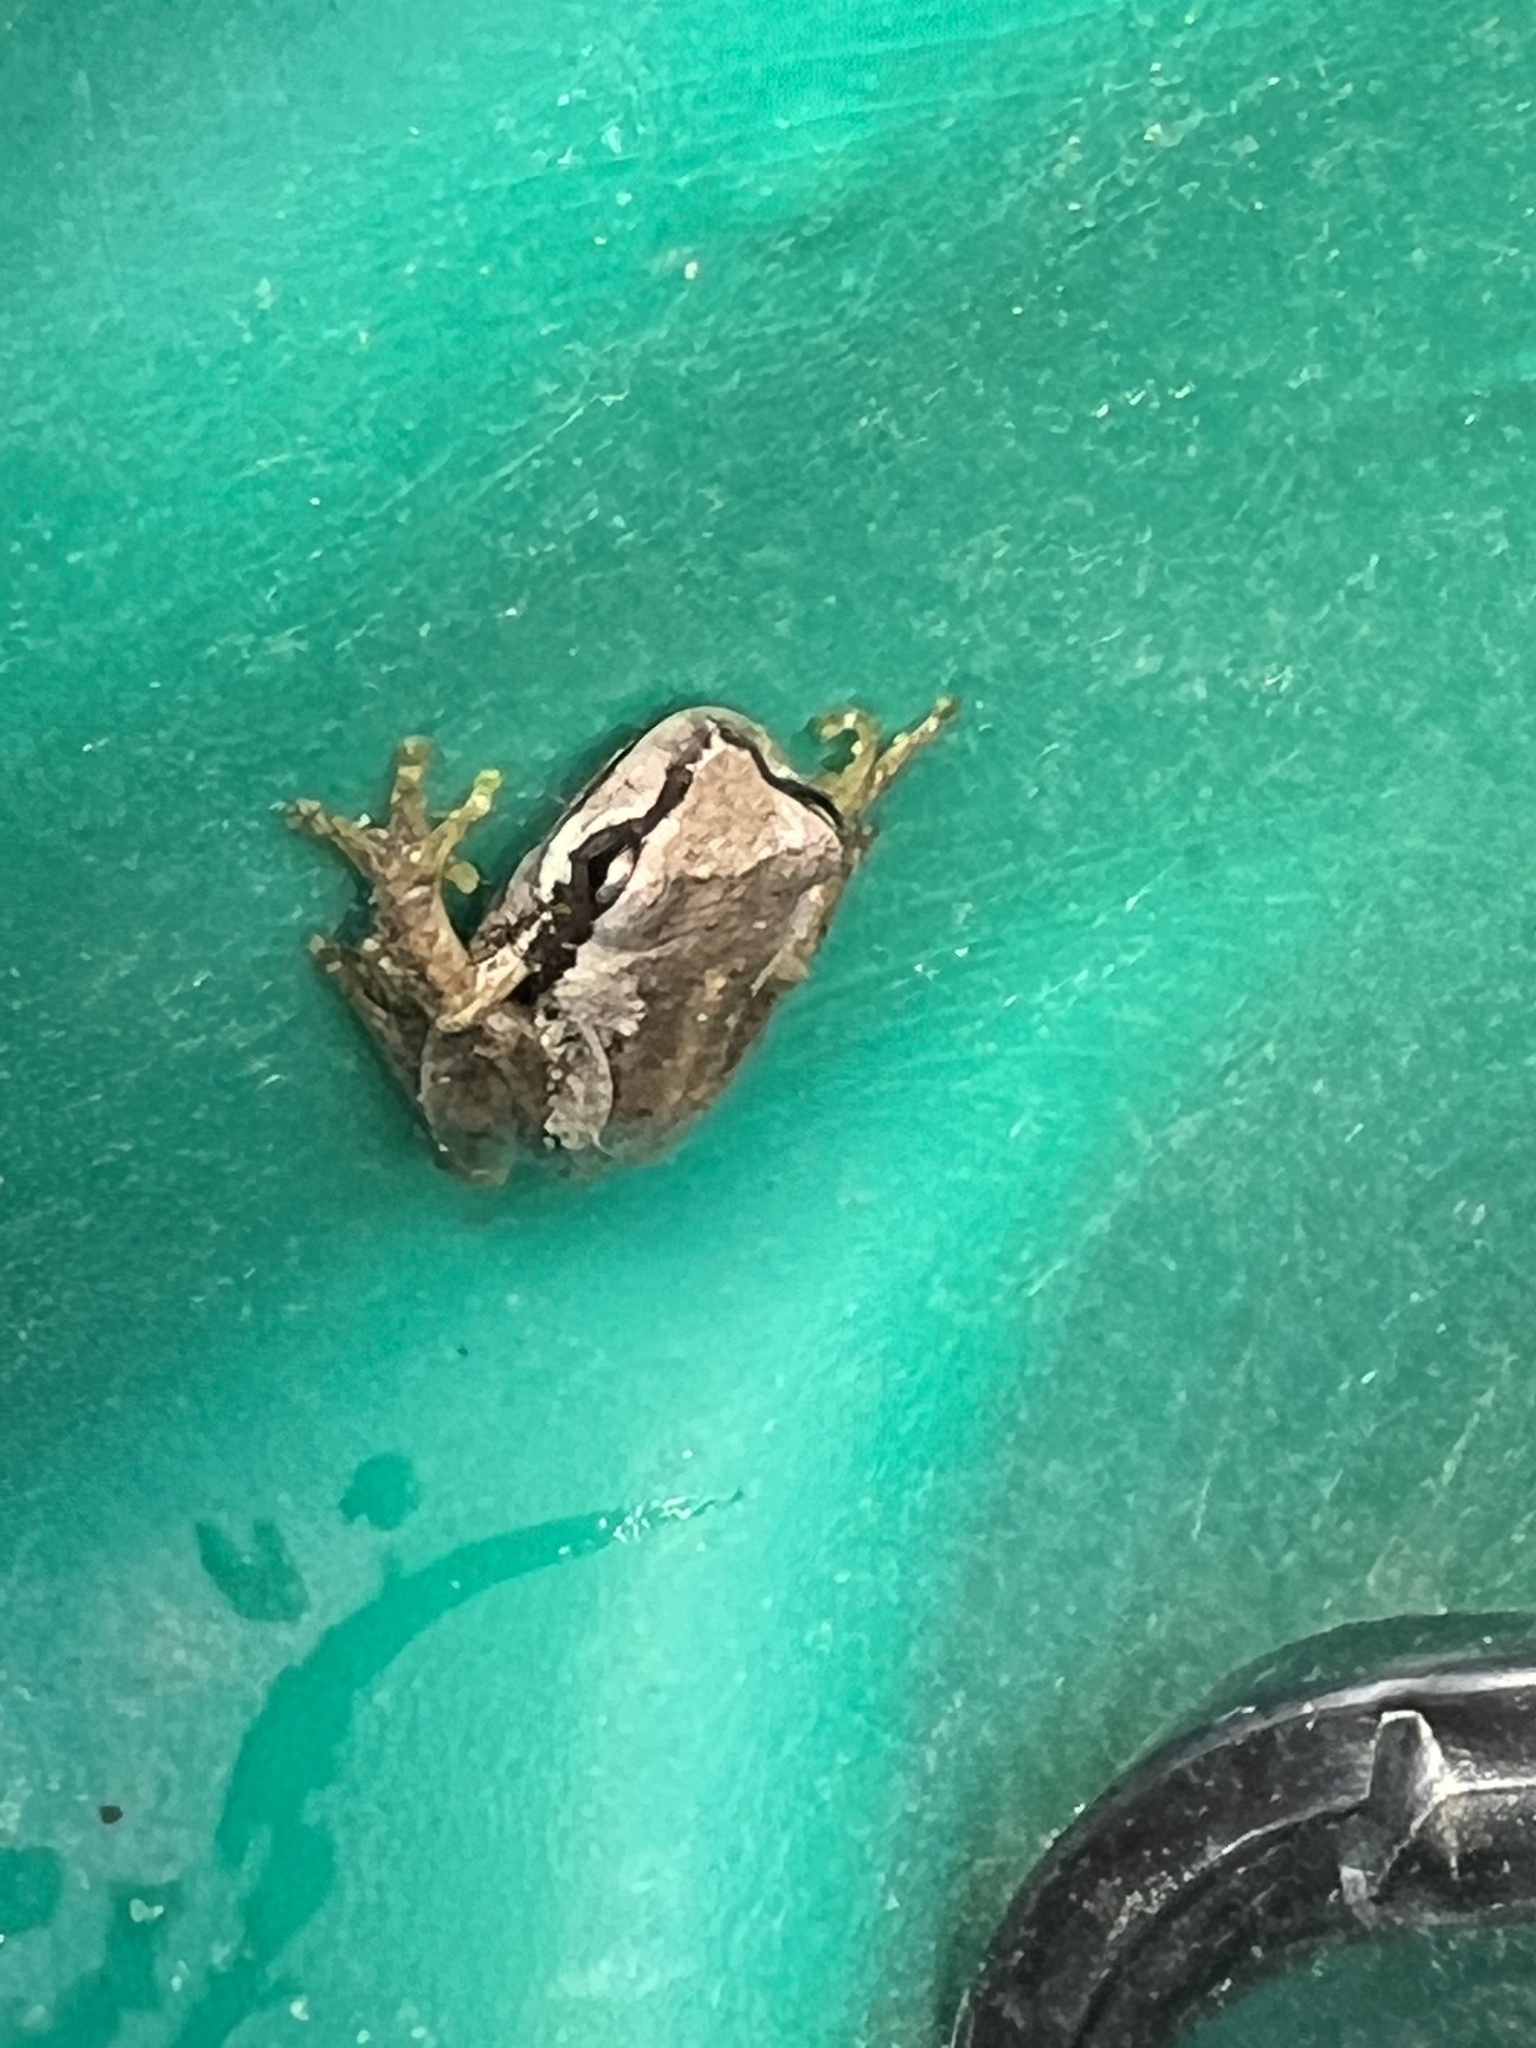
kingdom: Animalia
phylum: Chordata
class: Amphibia
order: Anura
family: Pelodryadidae
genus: Litoria
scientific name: Litoria ewingii
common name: Southern brown tree frog
